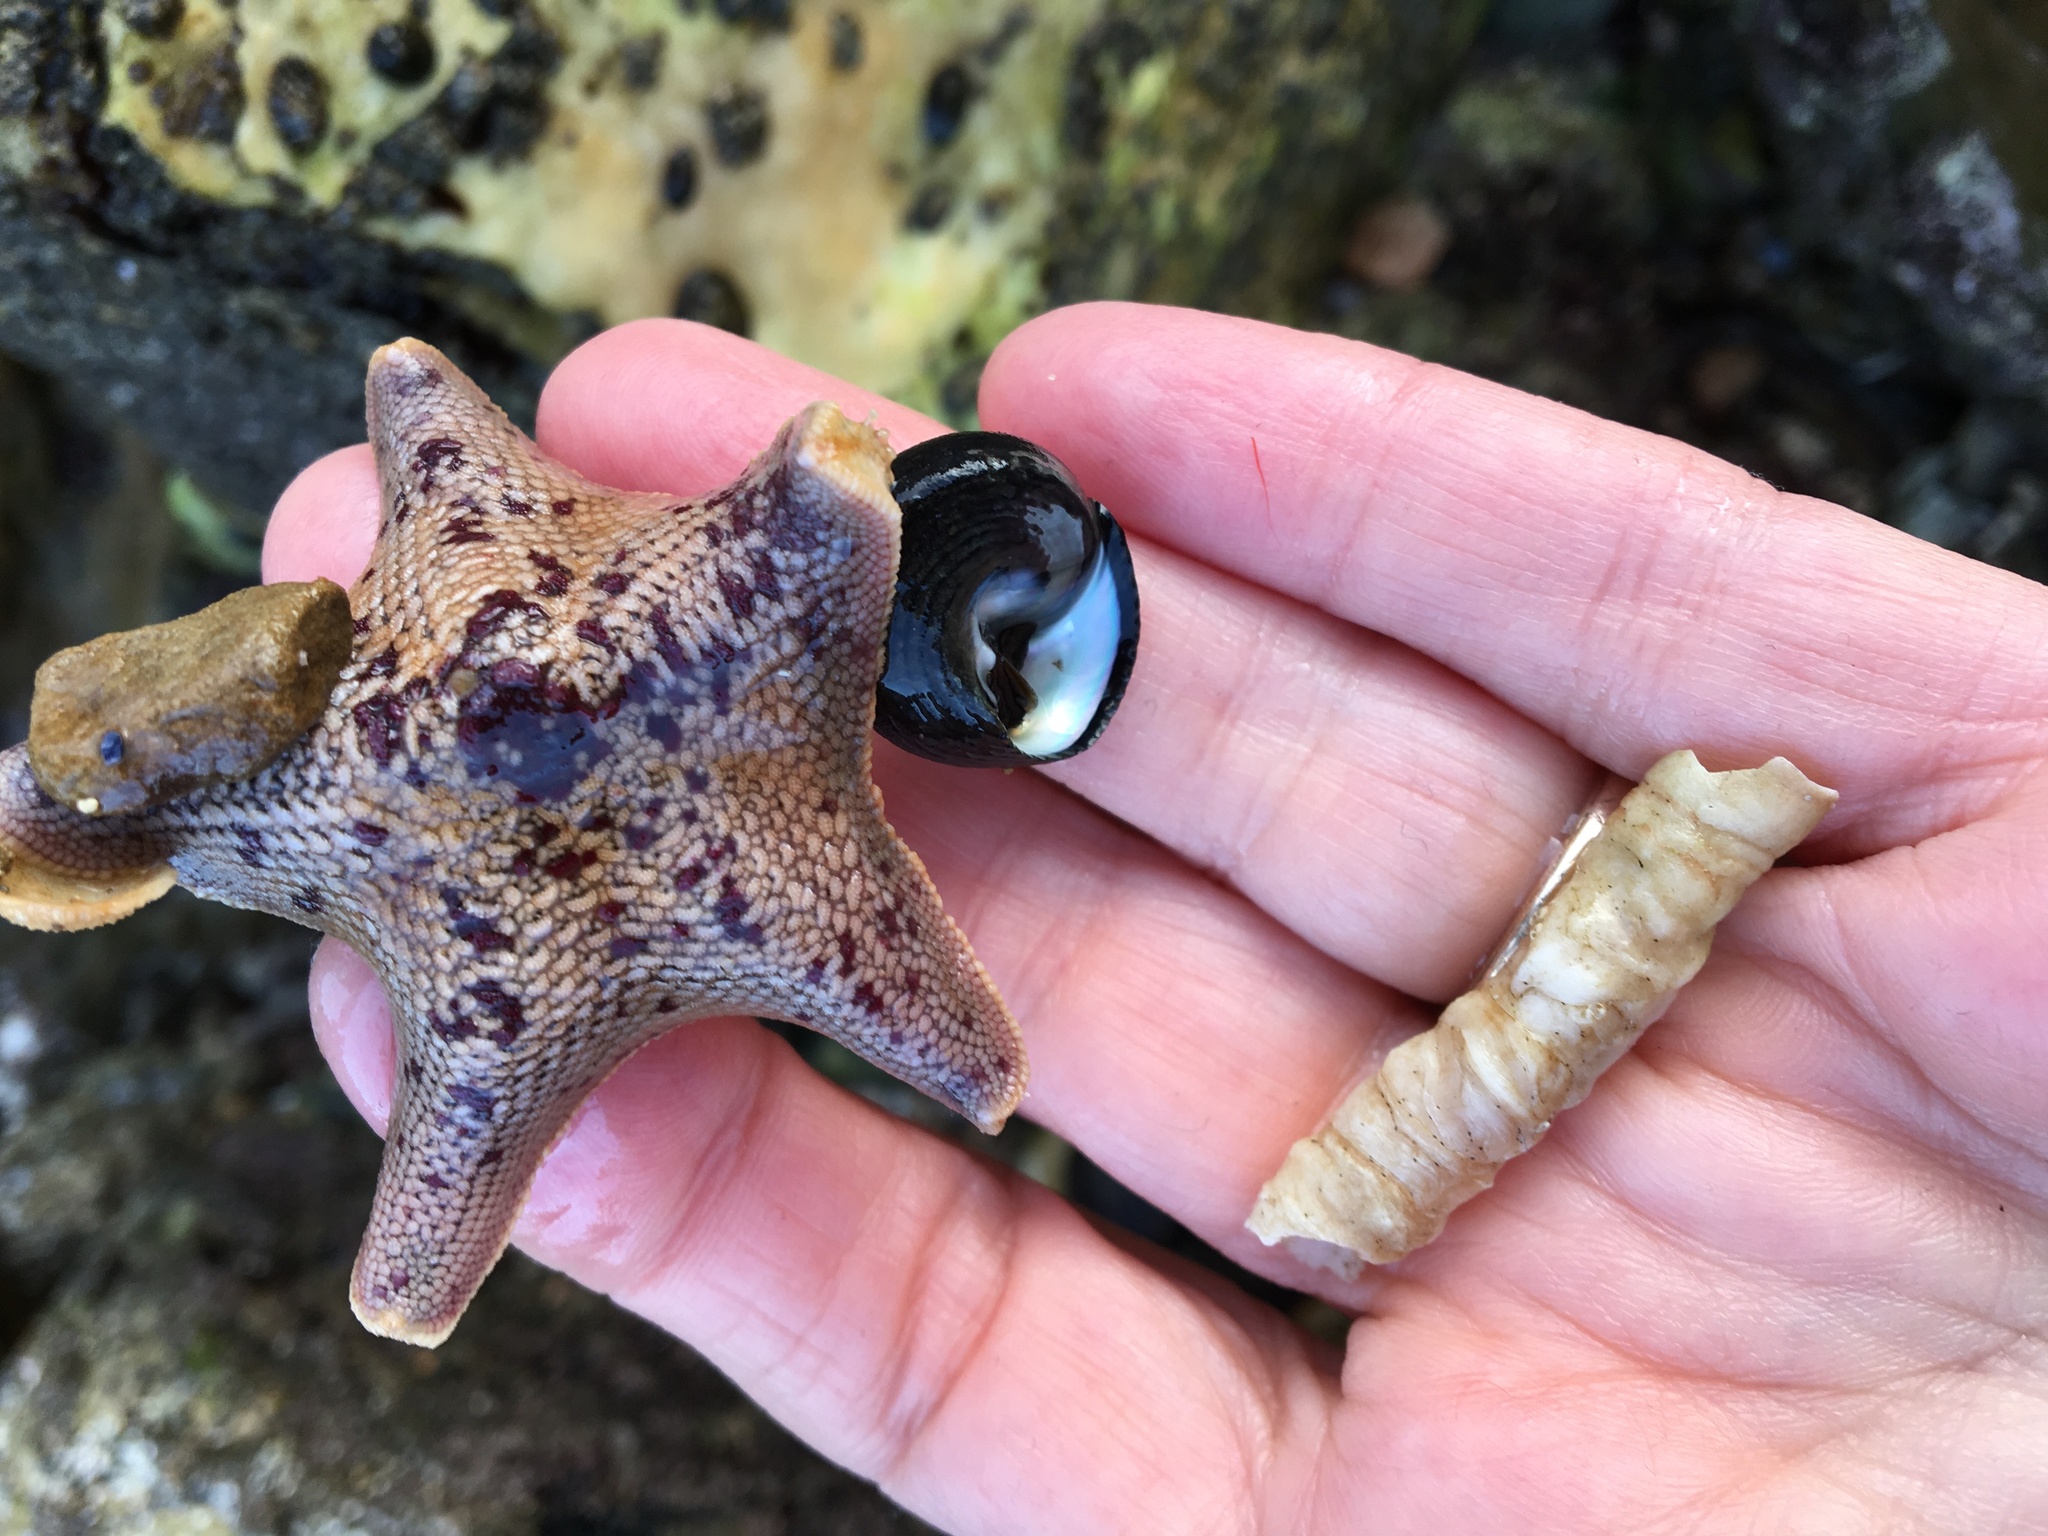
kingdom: Animalia
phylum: Echinodermata
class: Asteroidea
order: Valvatida
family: Asterinidae
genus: Patiria
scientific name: Patiria miniata
